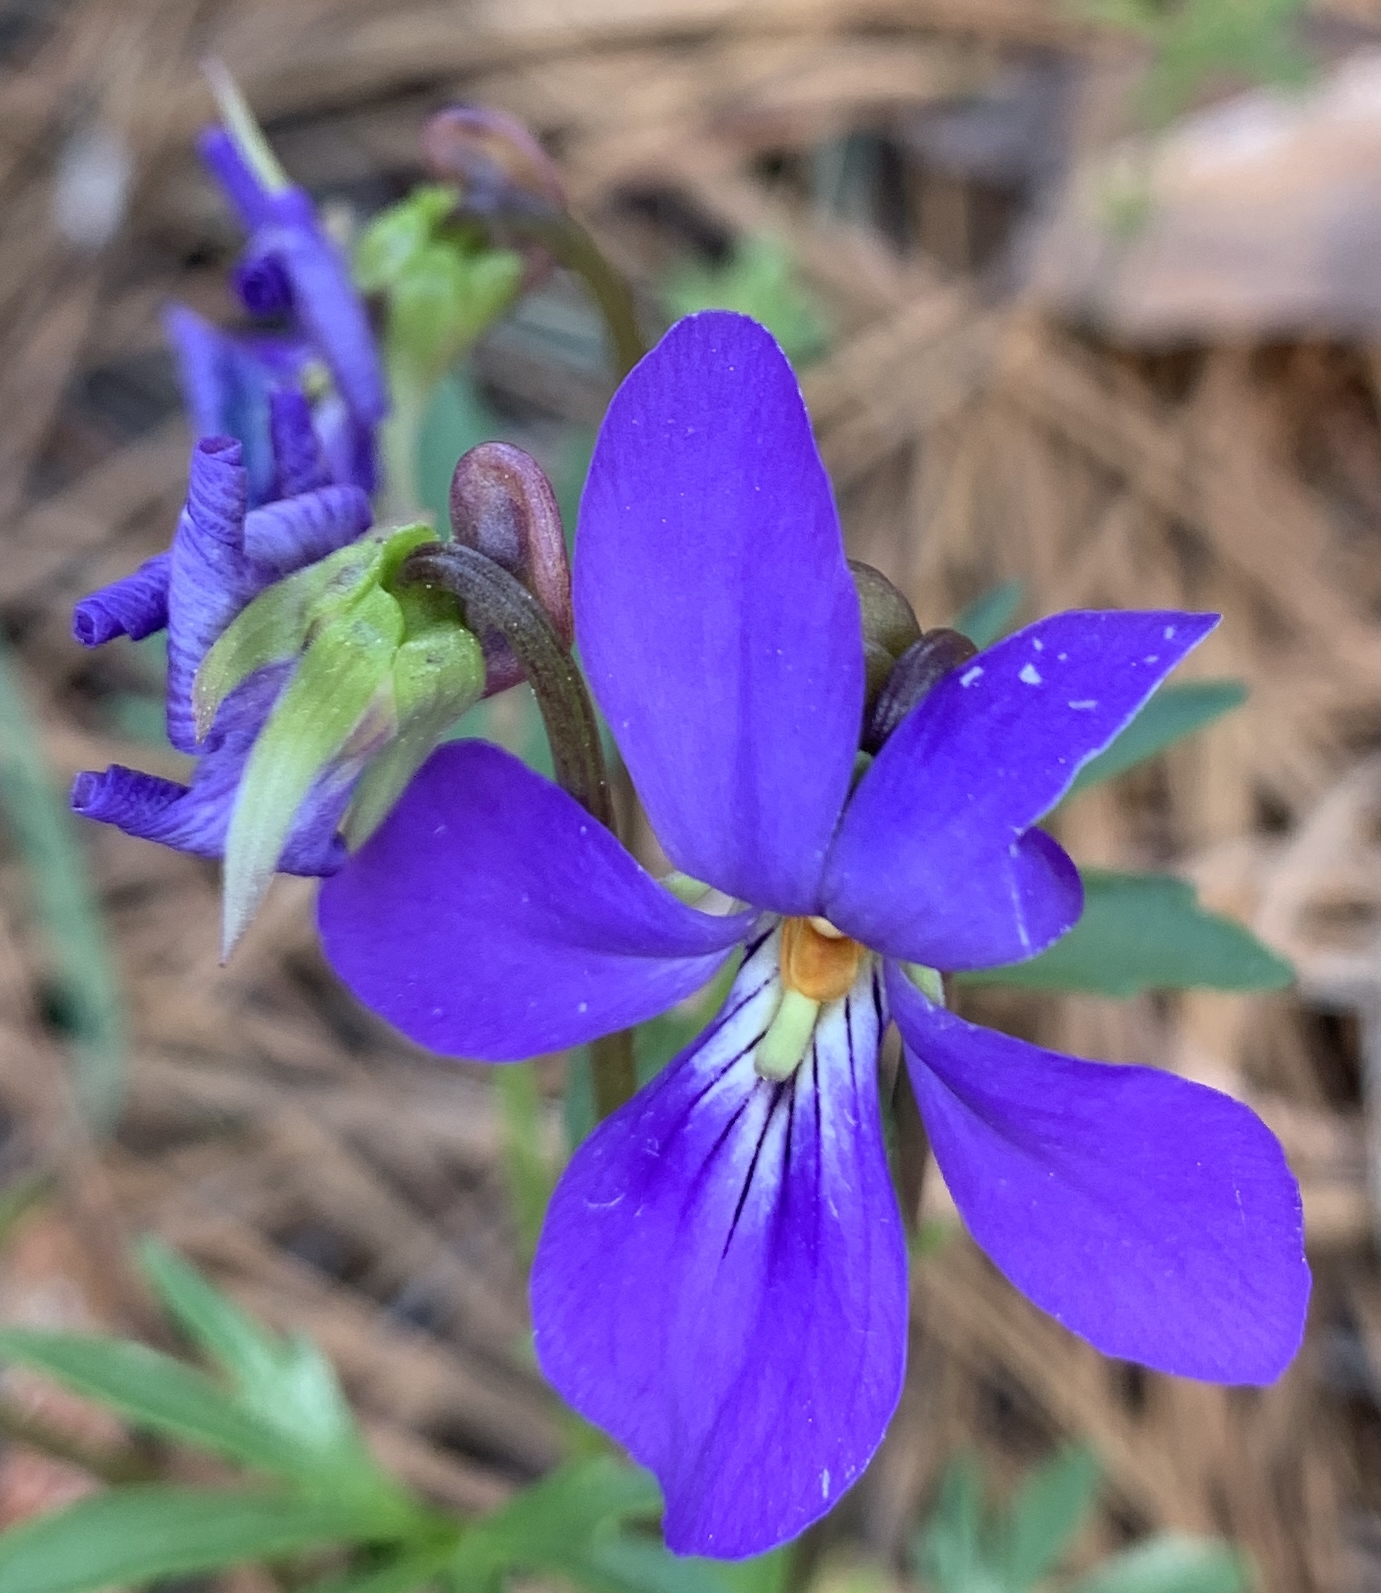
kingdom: Plantae
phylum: Tracheophyta
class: Magnoliopsida
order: Malpighiales
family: Violaceae
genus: Viola
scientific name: Viola pedata
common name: Pansy violet
